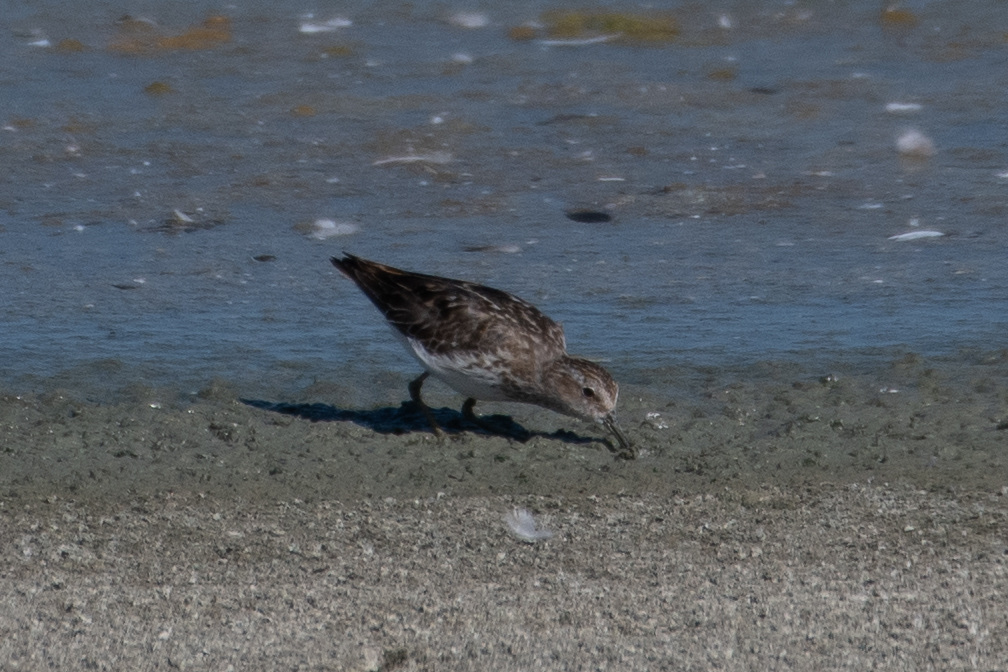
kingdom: Animalia
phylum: Chordata
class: Aves
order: Charadriiformes
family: Scolopacidae
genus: Calidris
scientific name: Calidris minutilla
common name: Least sandpiper
